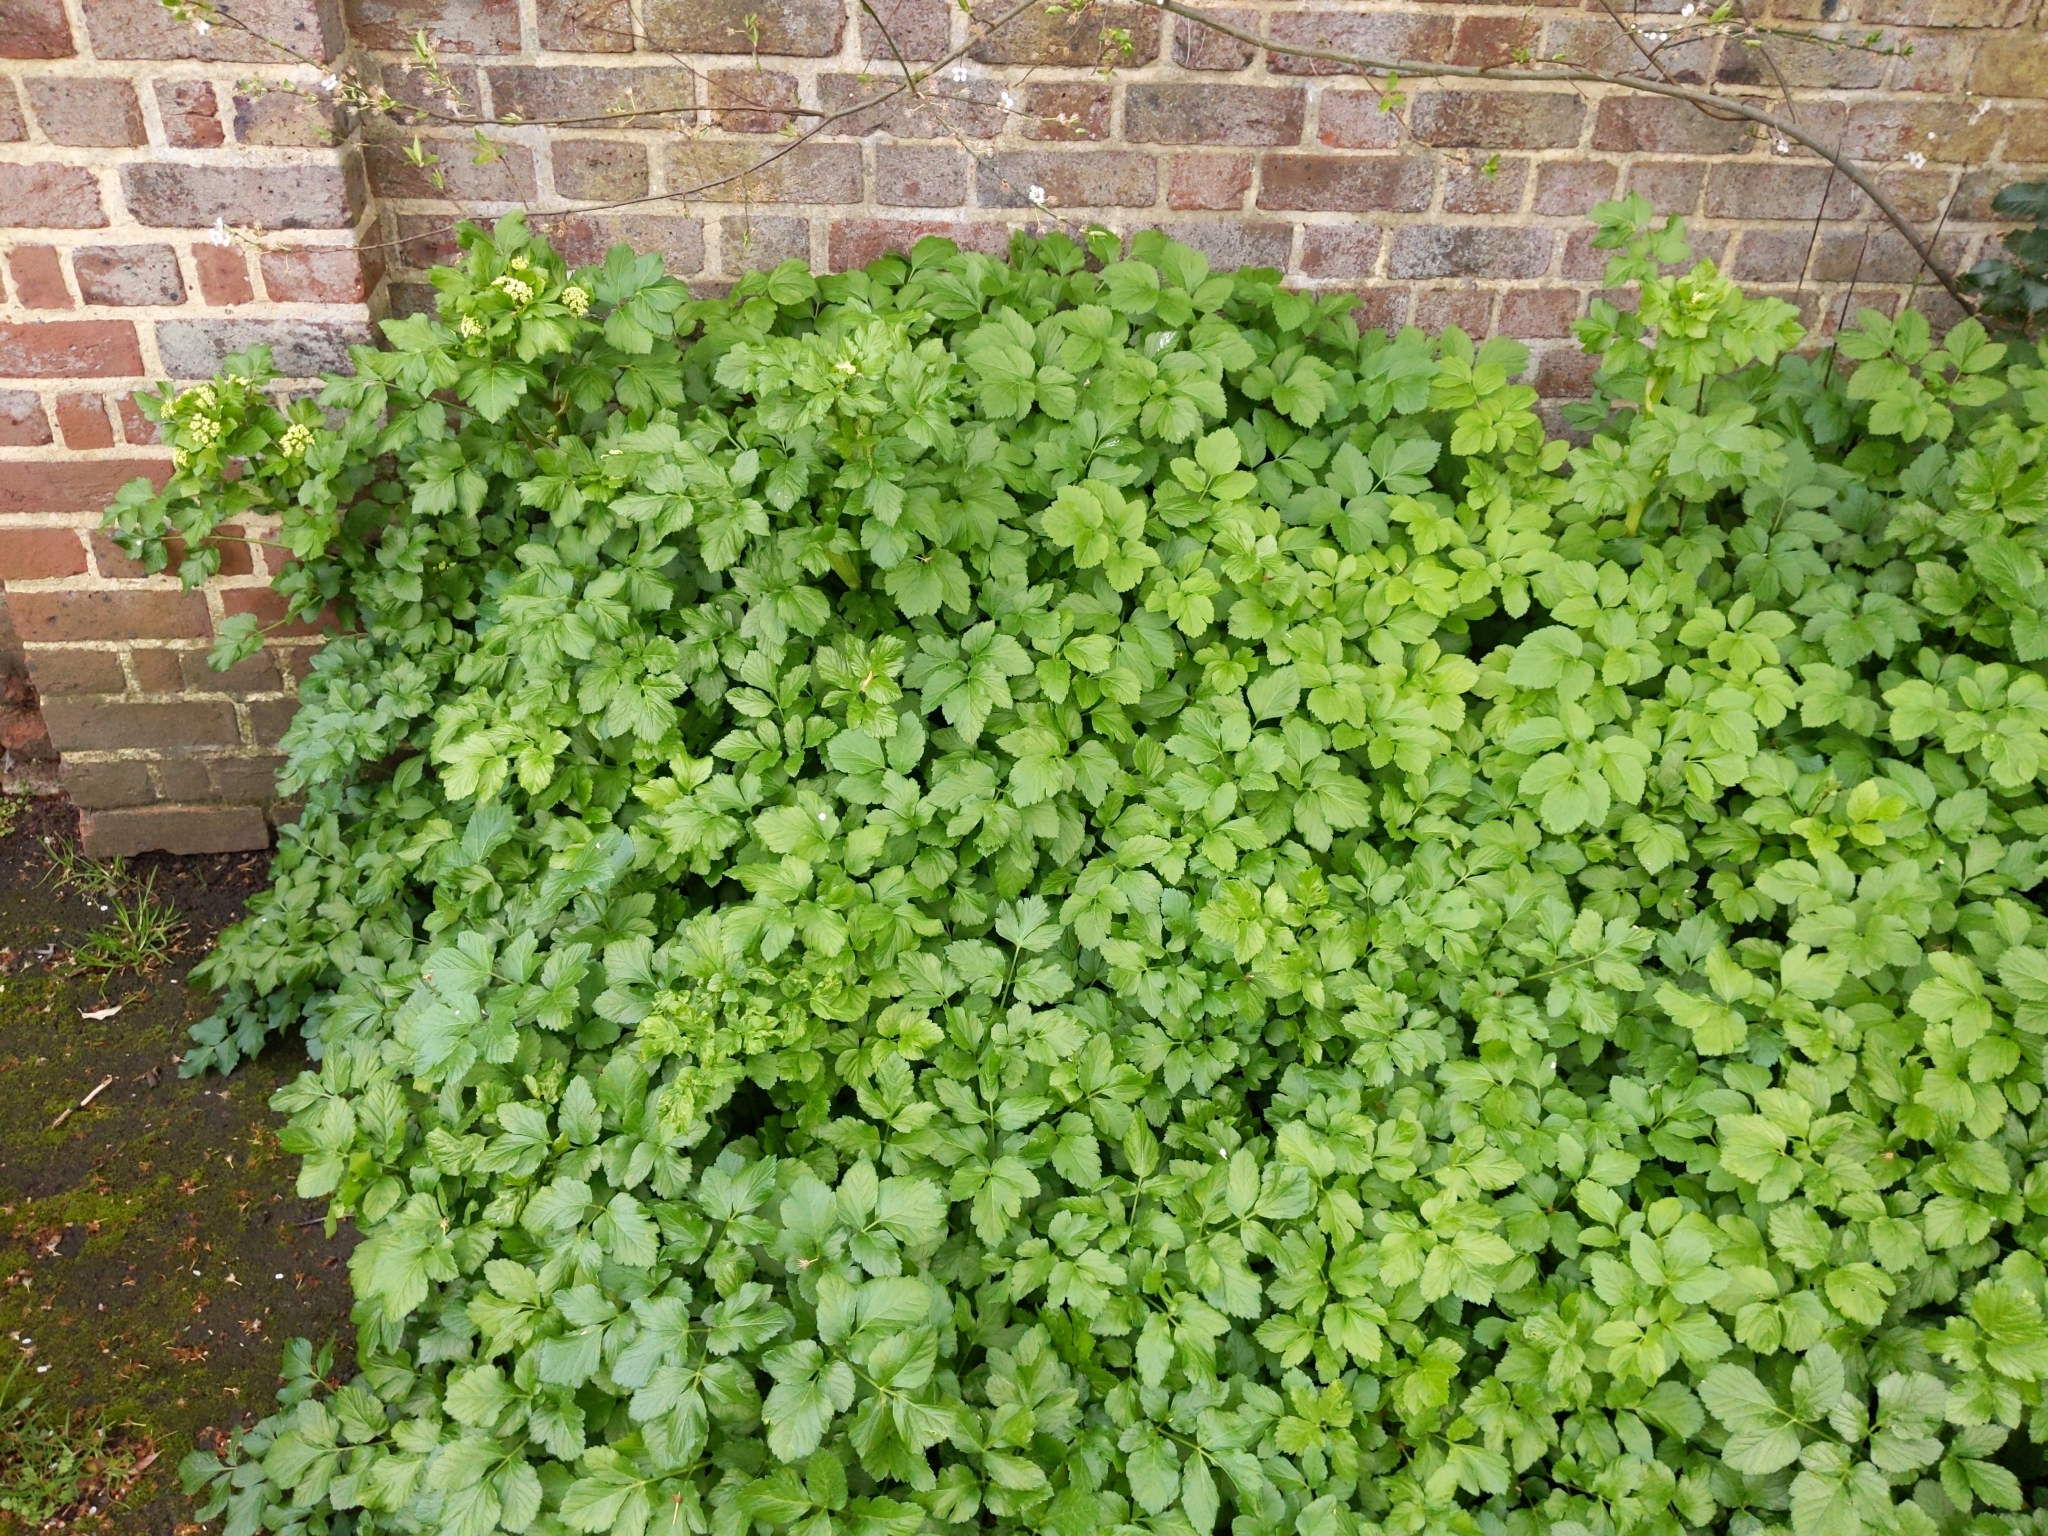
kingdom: Plantae
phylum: Tracheophyta
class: Magnoliopsida
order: Apiales
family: Apiaceae
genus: Smyrnium
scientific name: Smyrnium olusatrum
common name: Alexanders
